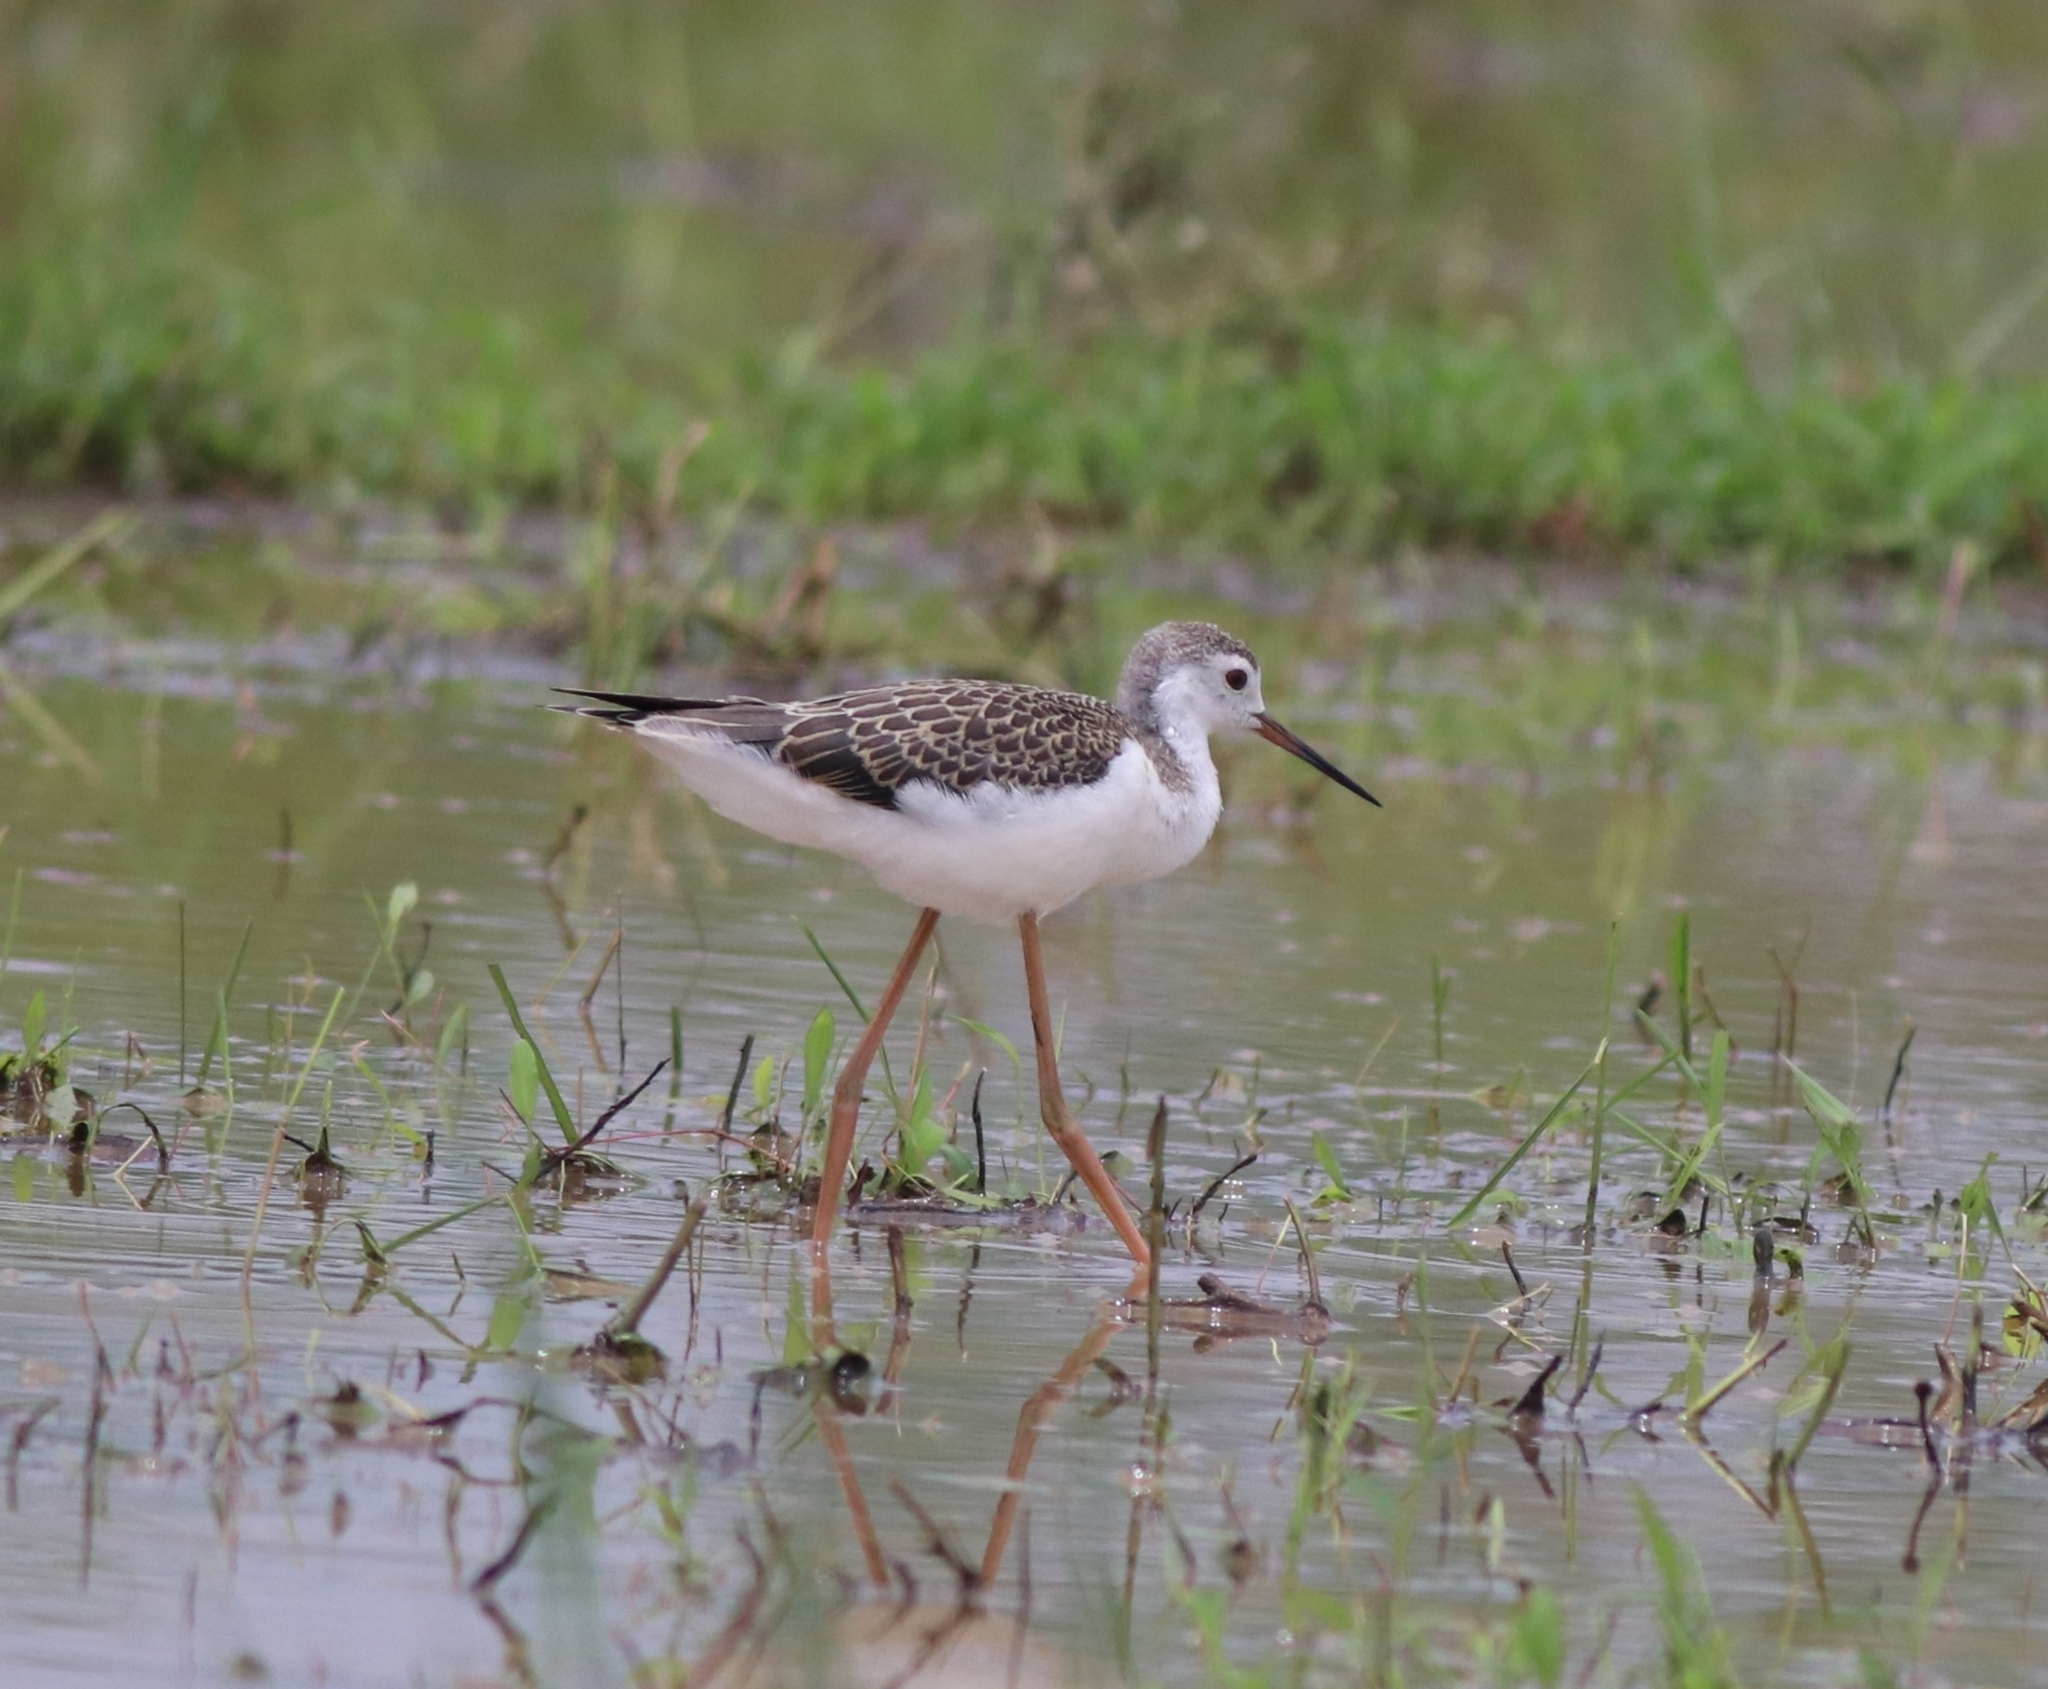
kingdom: Animalia
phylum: Chordata
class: Aves
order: Charadriiformes
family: Recurvirostridae
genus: Himantopus
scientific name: Himantopus himantopus
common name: Black-winged stilt
